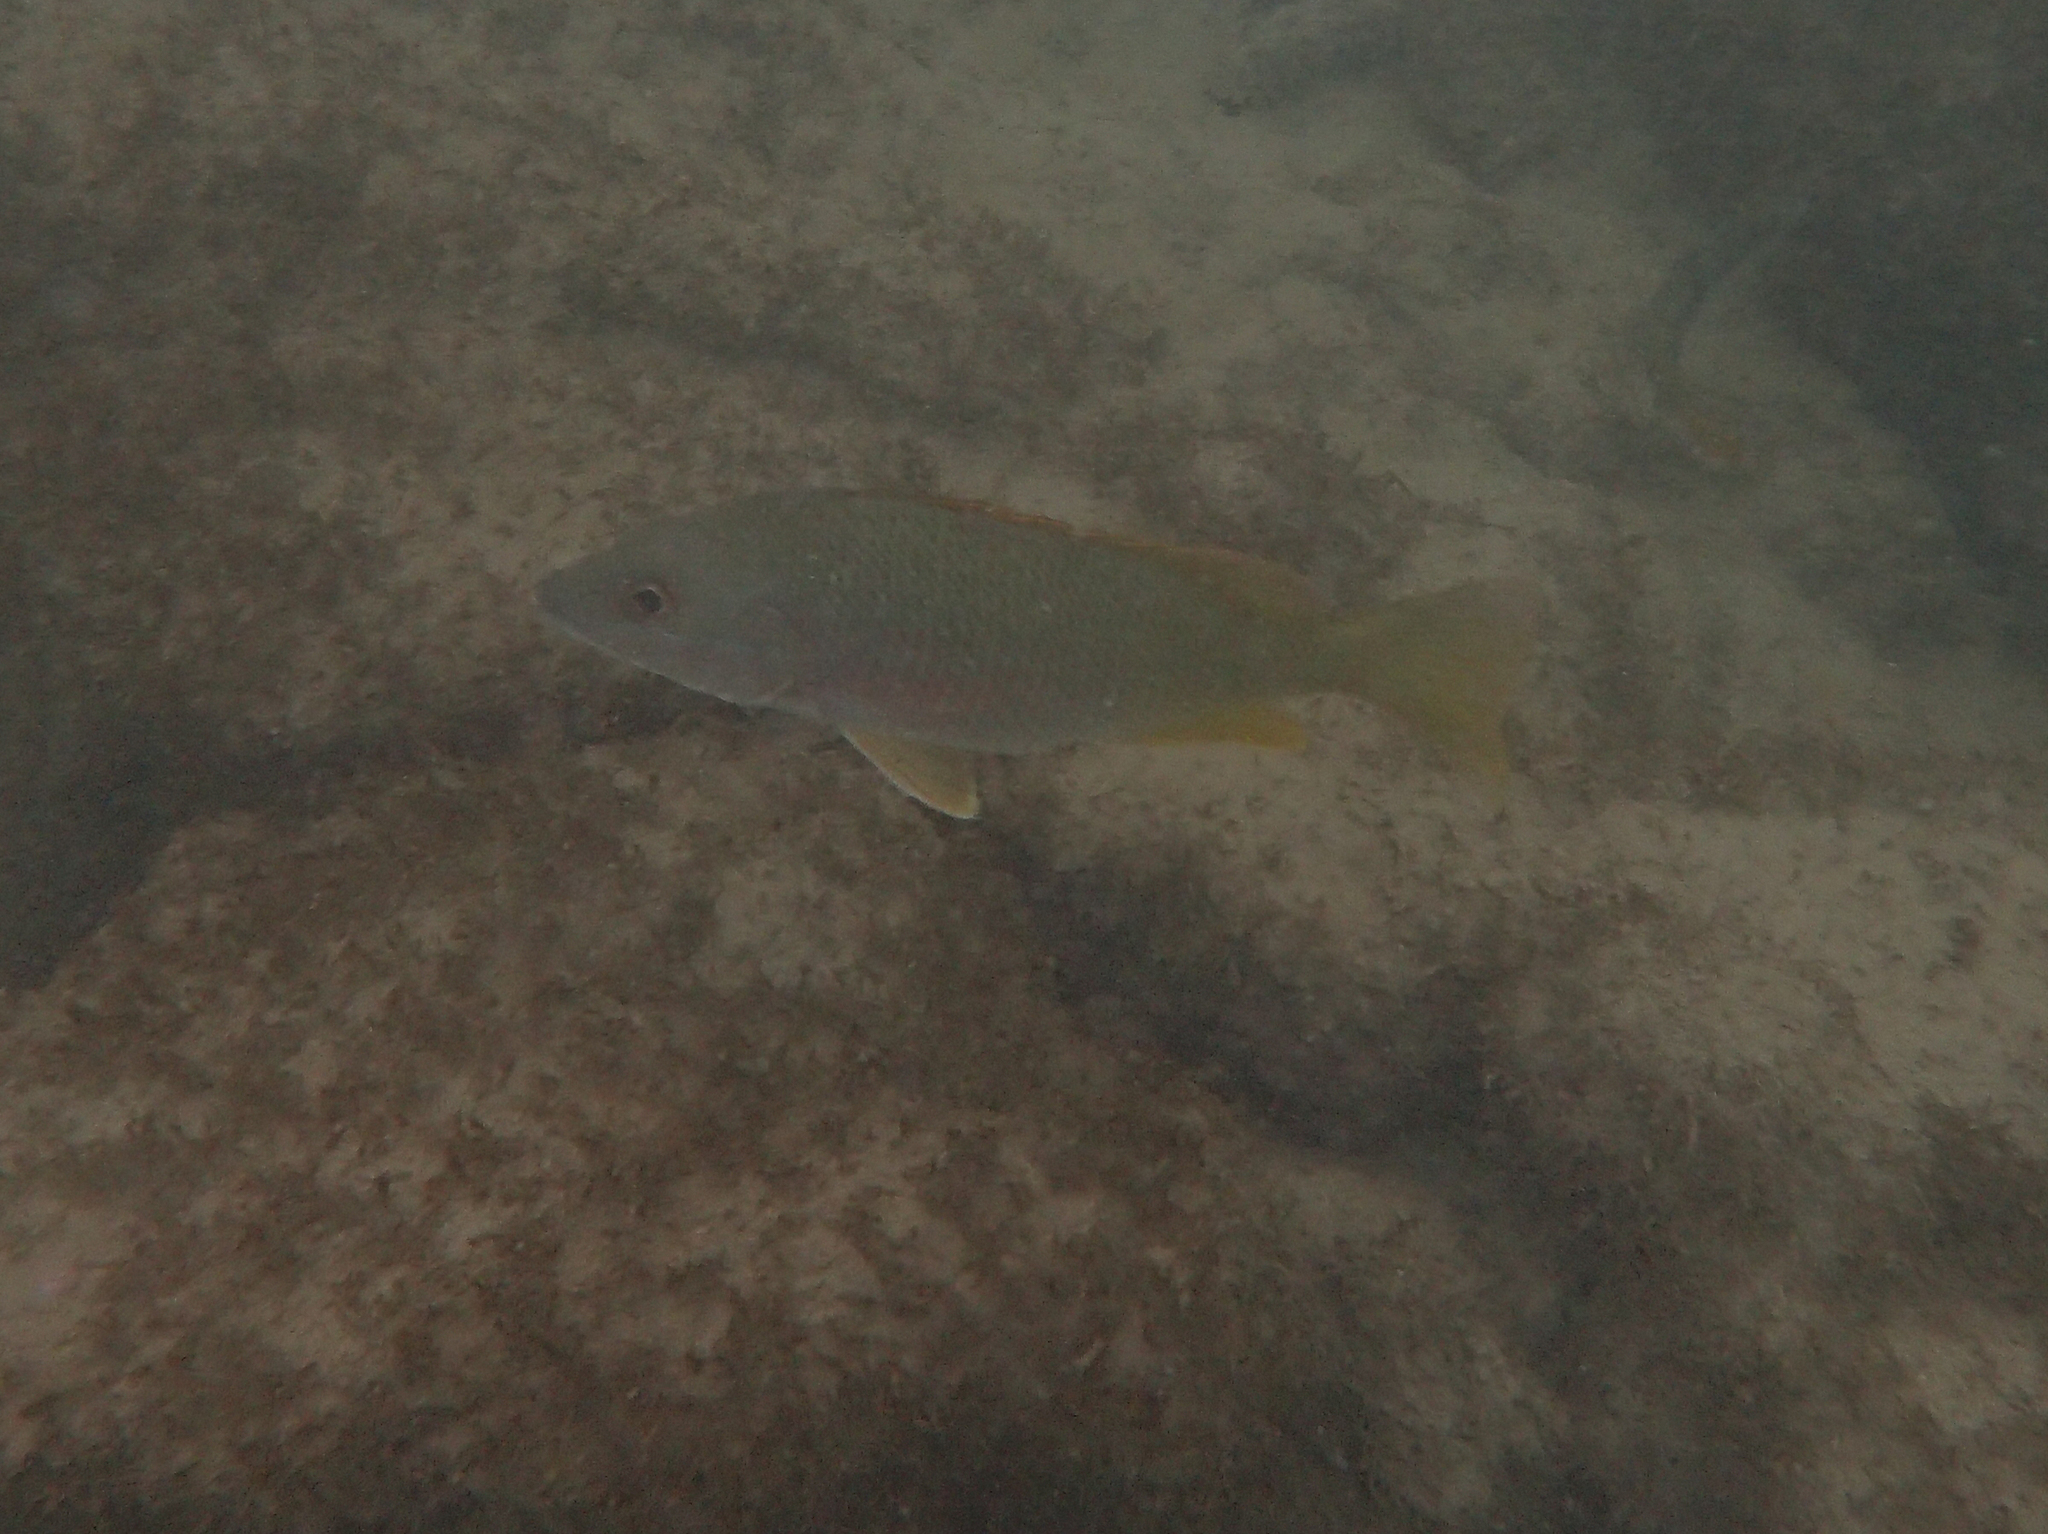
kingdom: Animalia
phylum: Chordata
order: Perciformes
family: Lutjanidae
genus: Lutjanus
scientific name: Lutjanus argentiventris
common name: Yellow snapper
